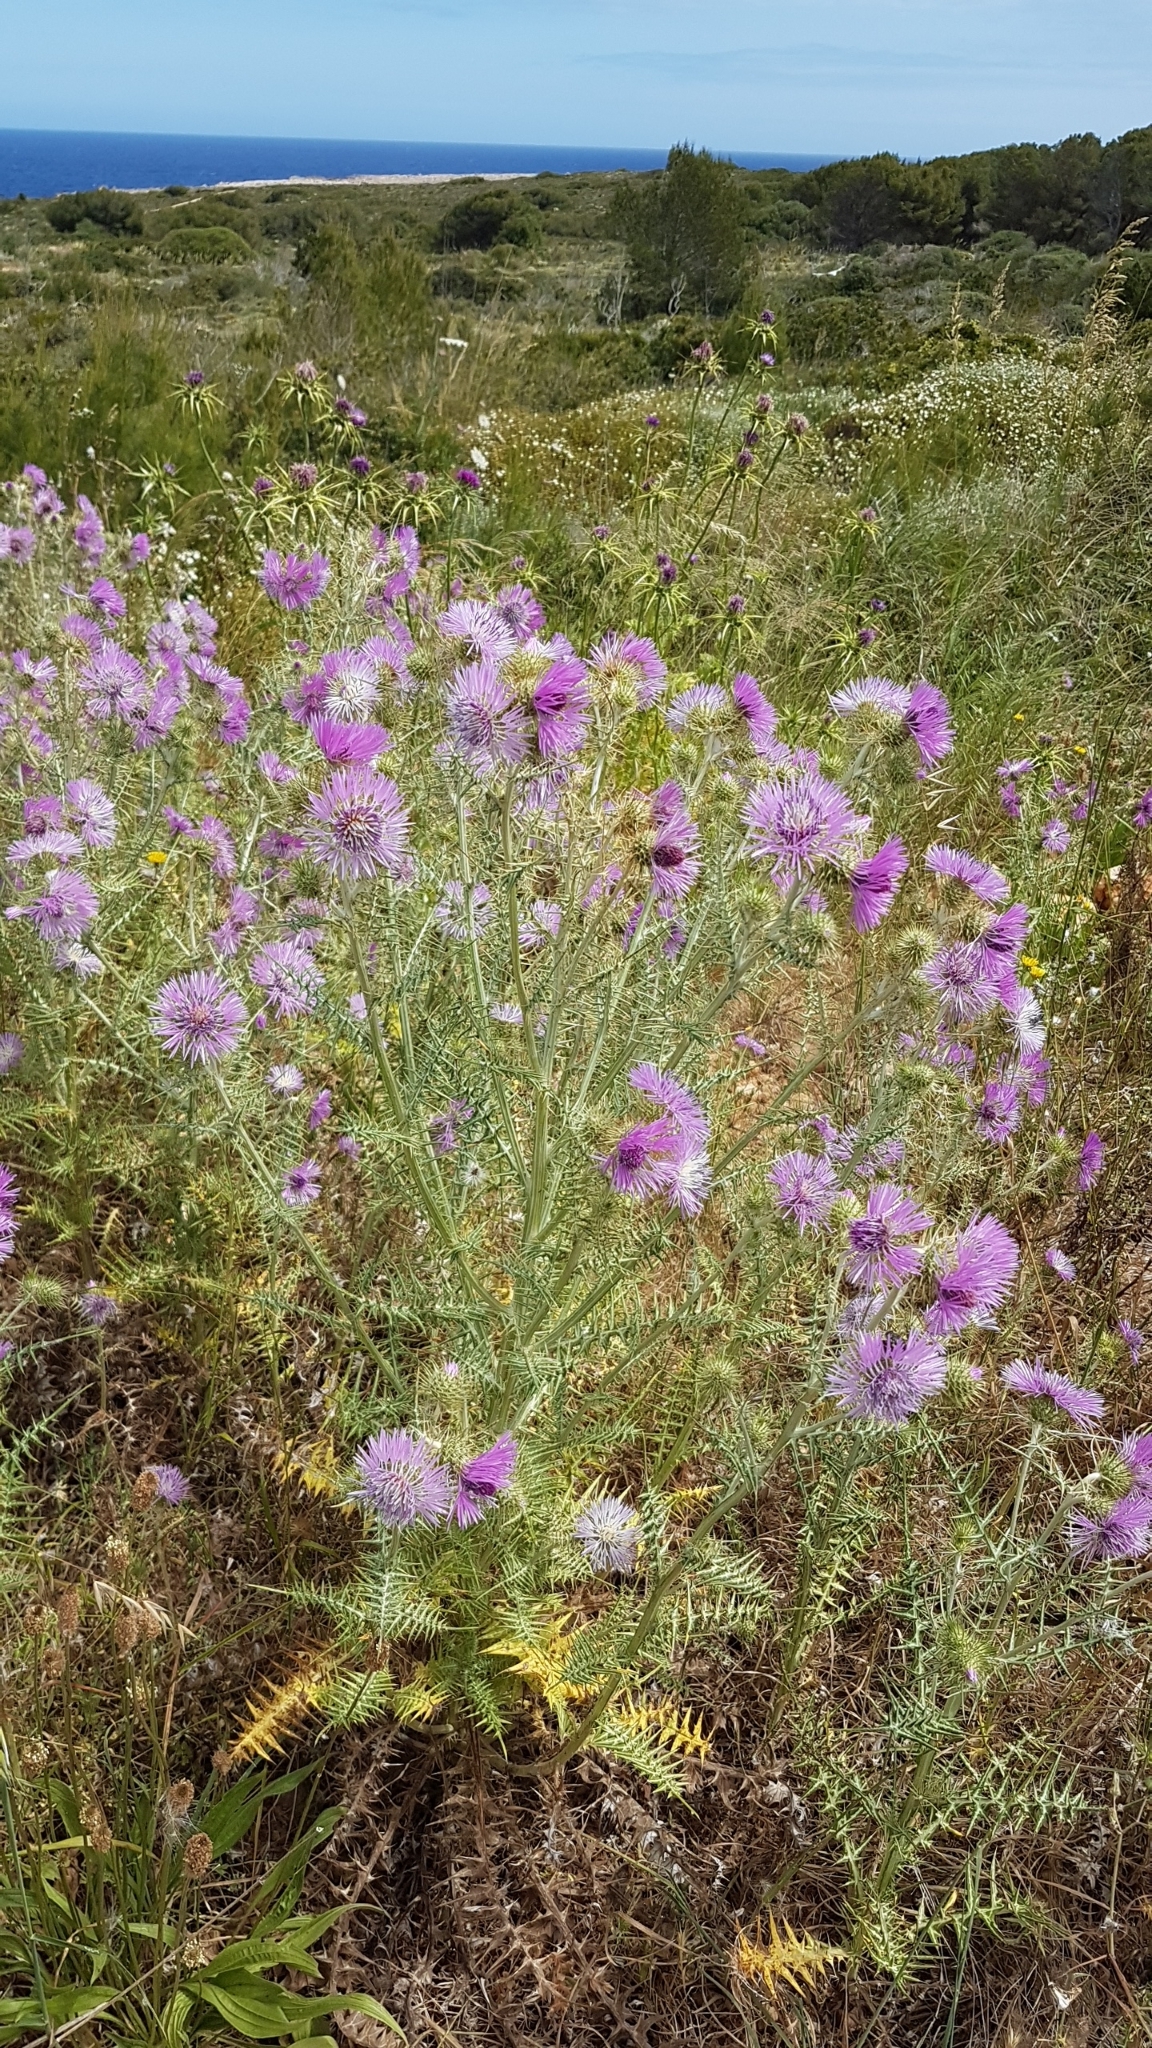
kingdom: Plantae
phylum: Tracheophyta
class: Magnoliopsida
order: Asterales
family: Asteraceae
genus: Galactites
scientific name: Galactites tomentosa
